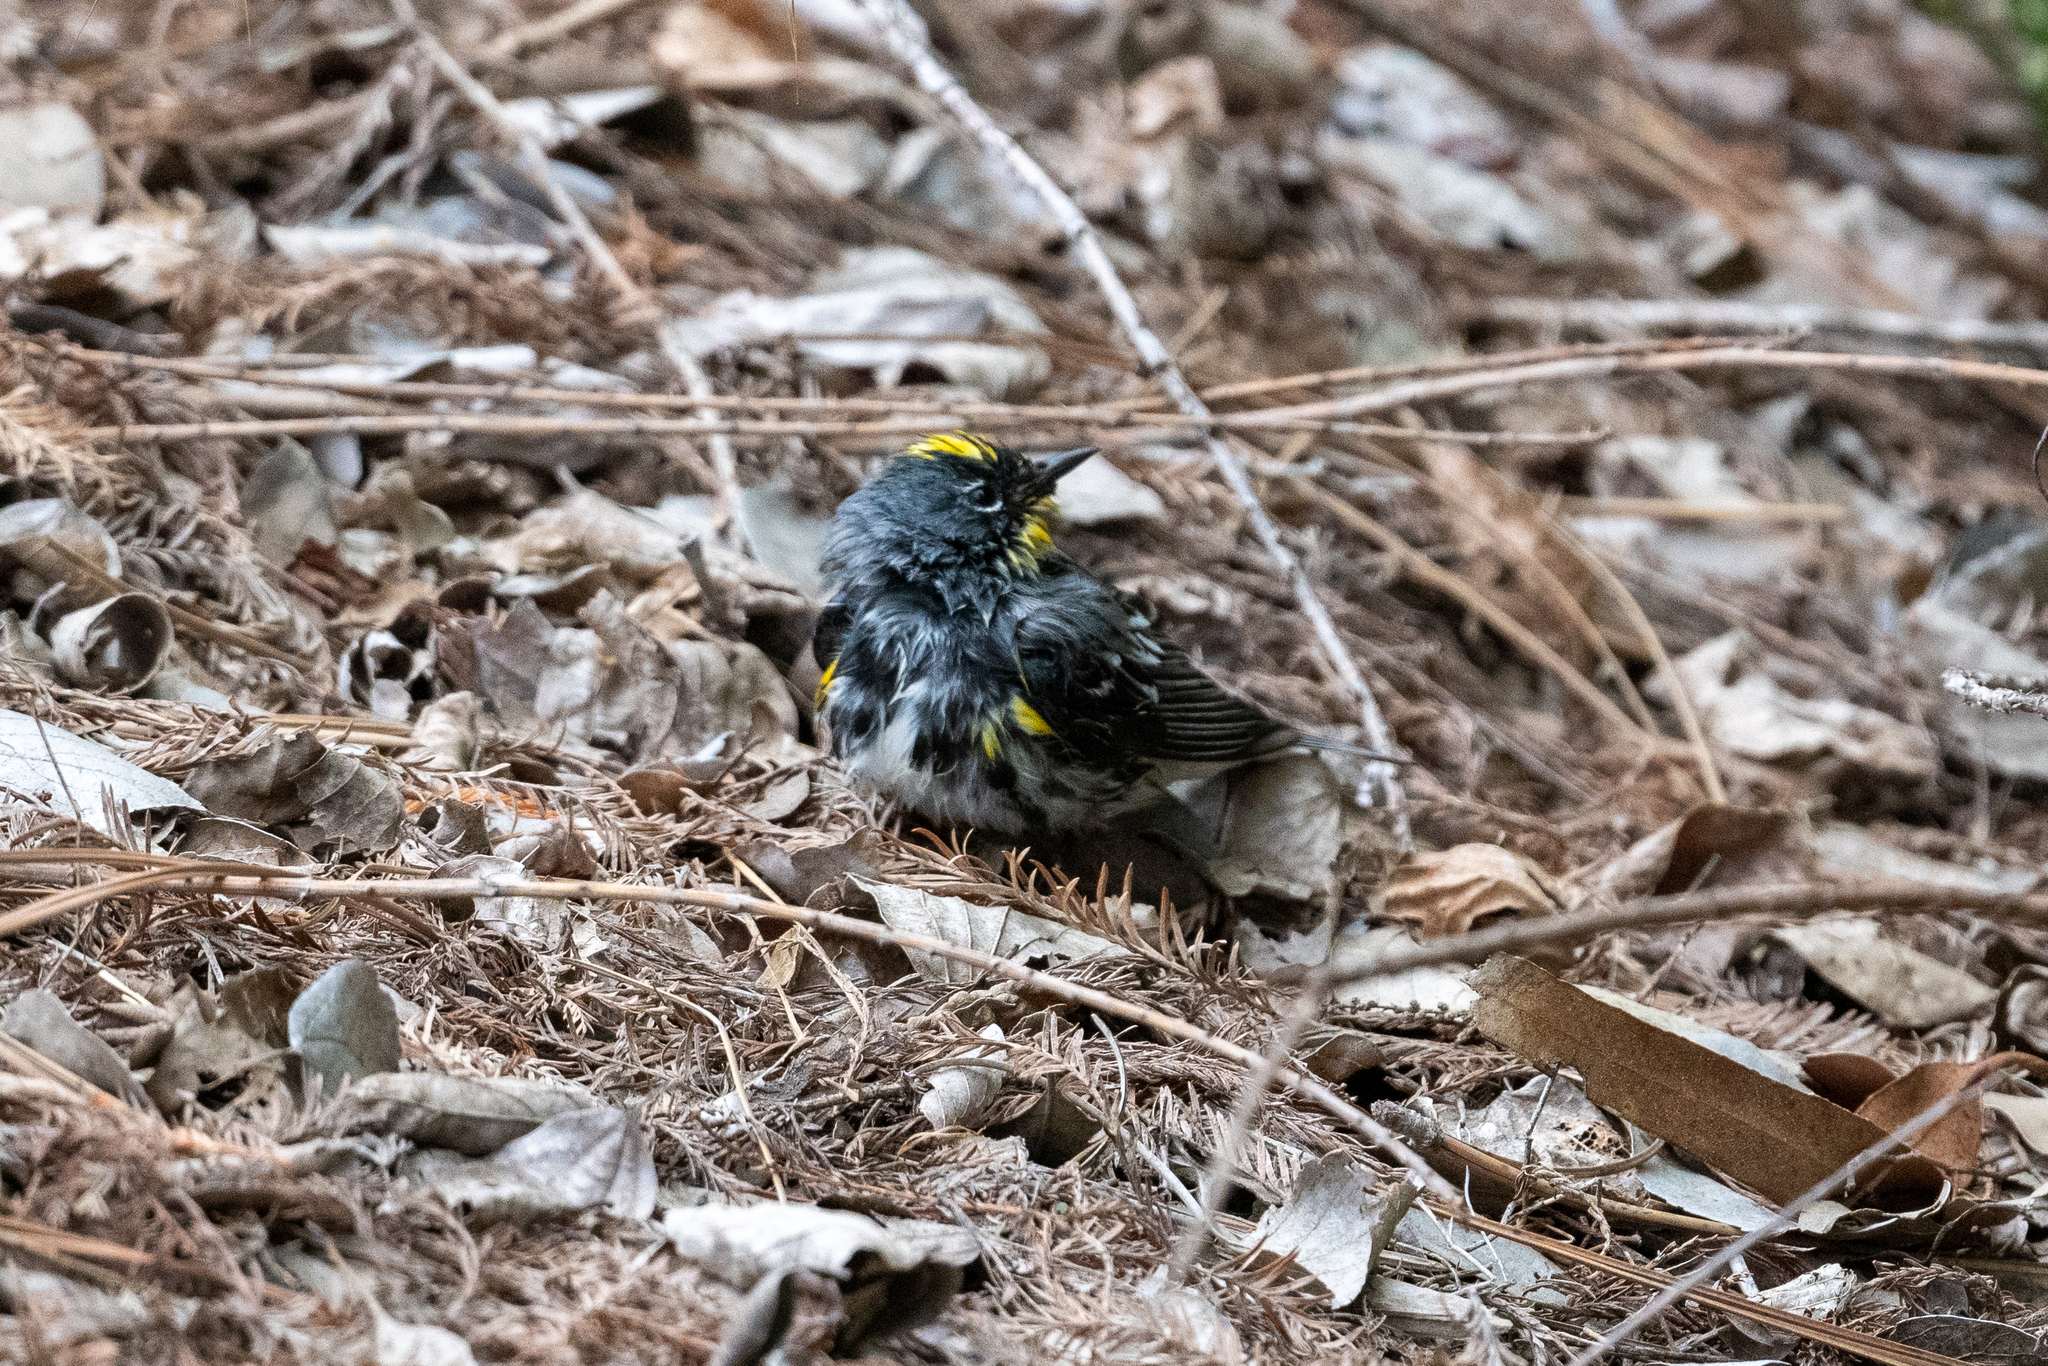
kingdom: Animalia
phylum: Chordata
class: Aves
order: Passeriformes
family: Parulidae
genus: Setophaga
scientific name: Setophaga coronata
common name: Myrtle warbler
